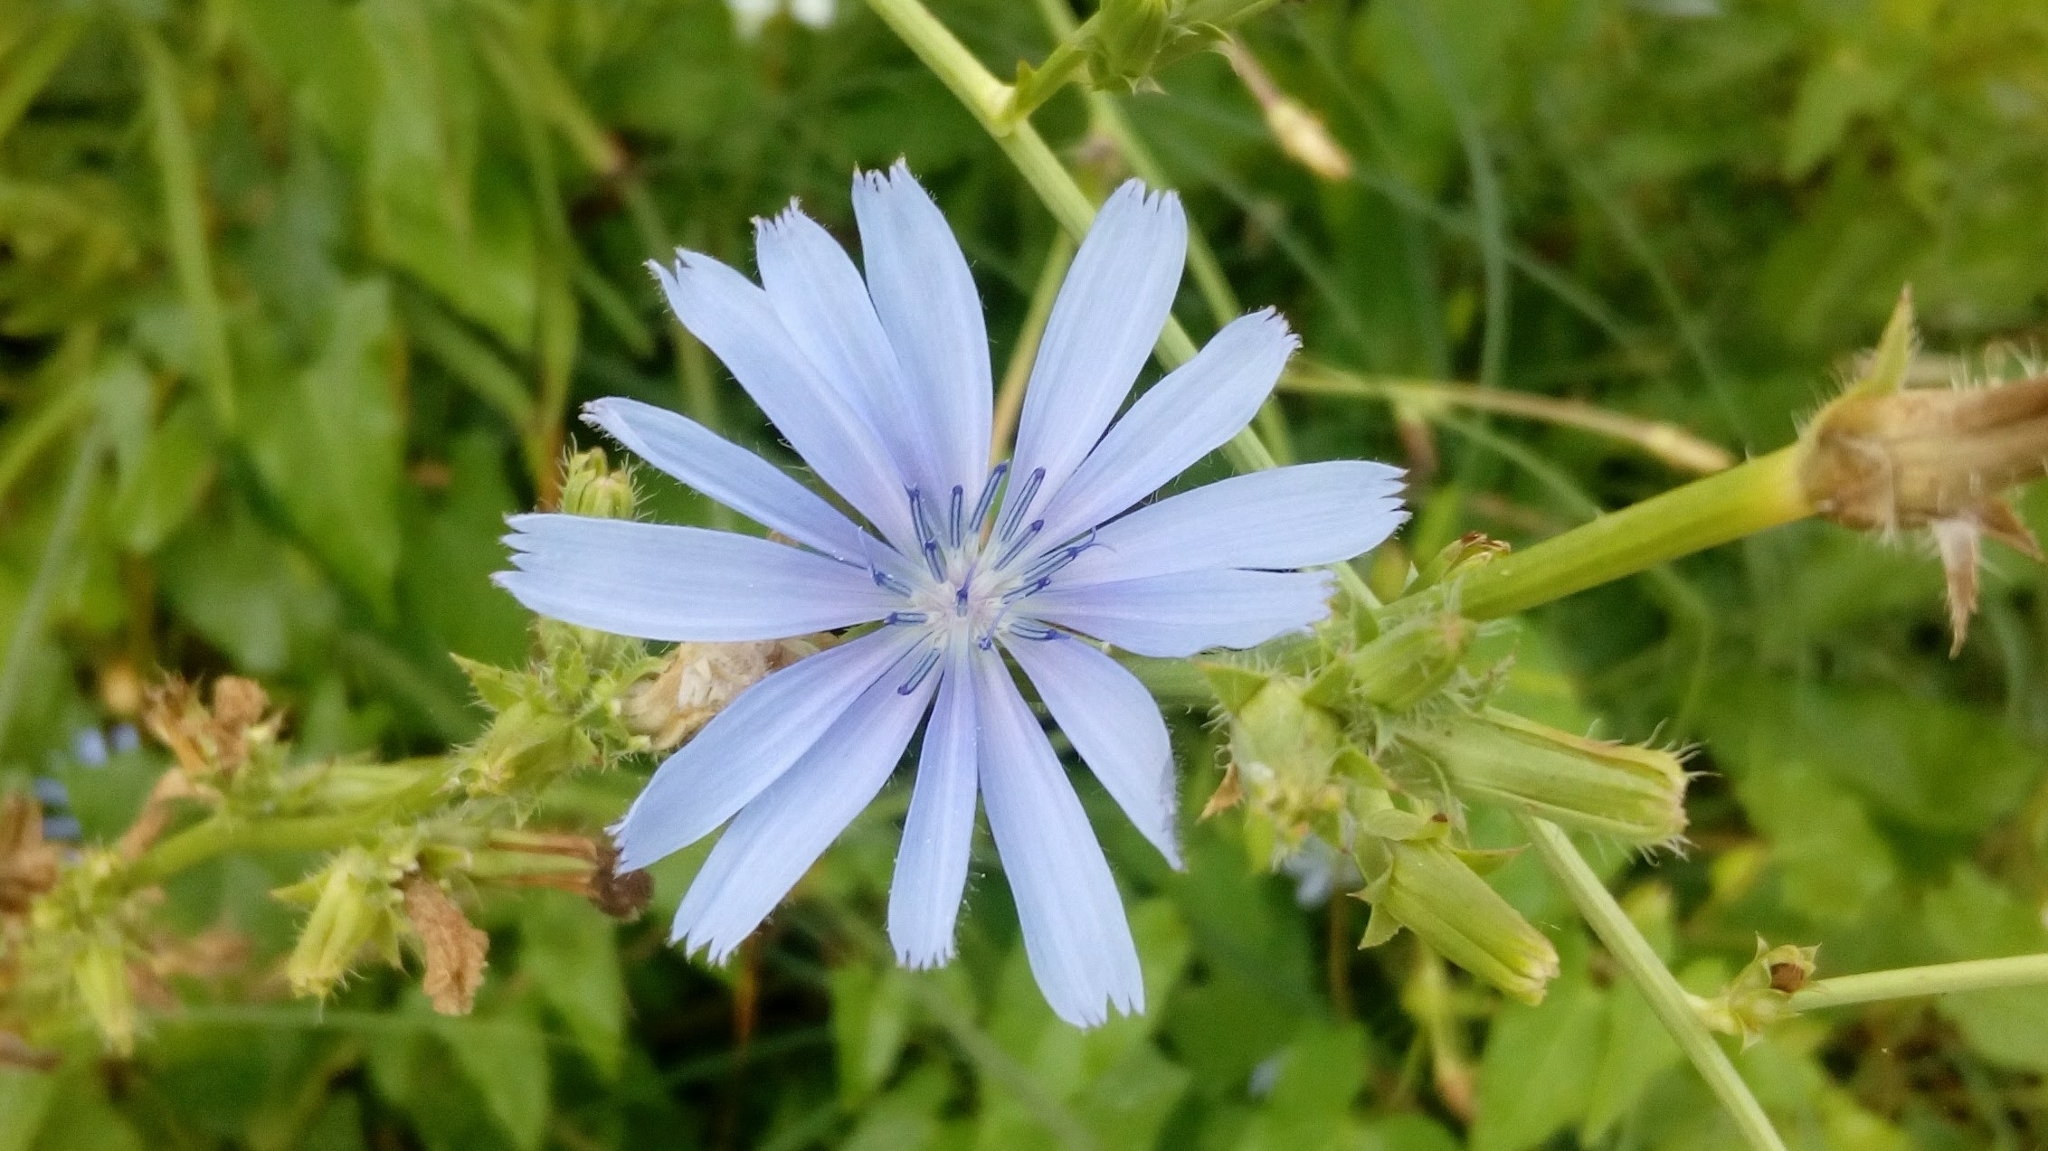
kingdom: Plantae
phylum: Tracheophyta
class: Magnoliopsida
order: Asterales
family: Asteraceae
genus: Cichorium
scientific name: Cichorium intybus
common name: Chicory
